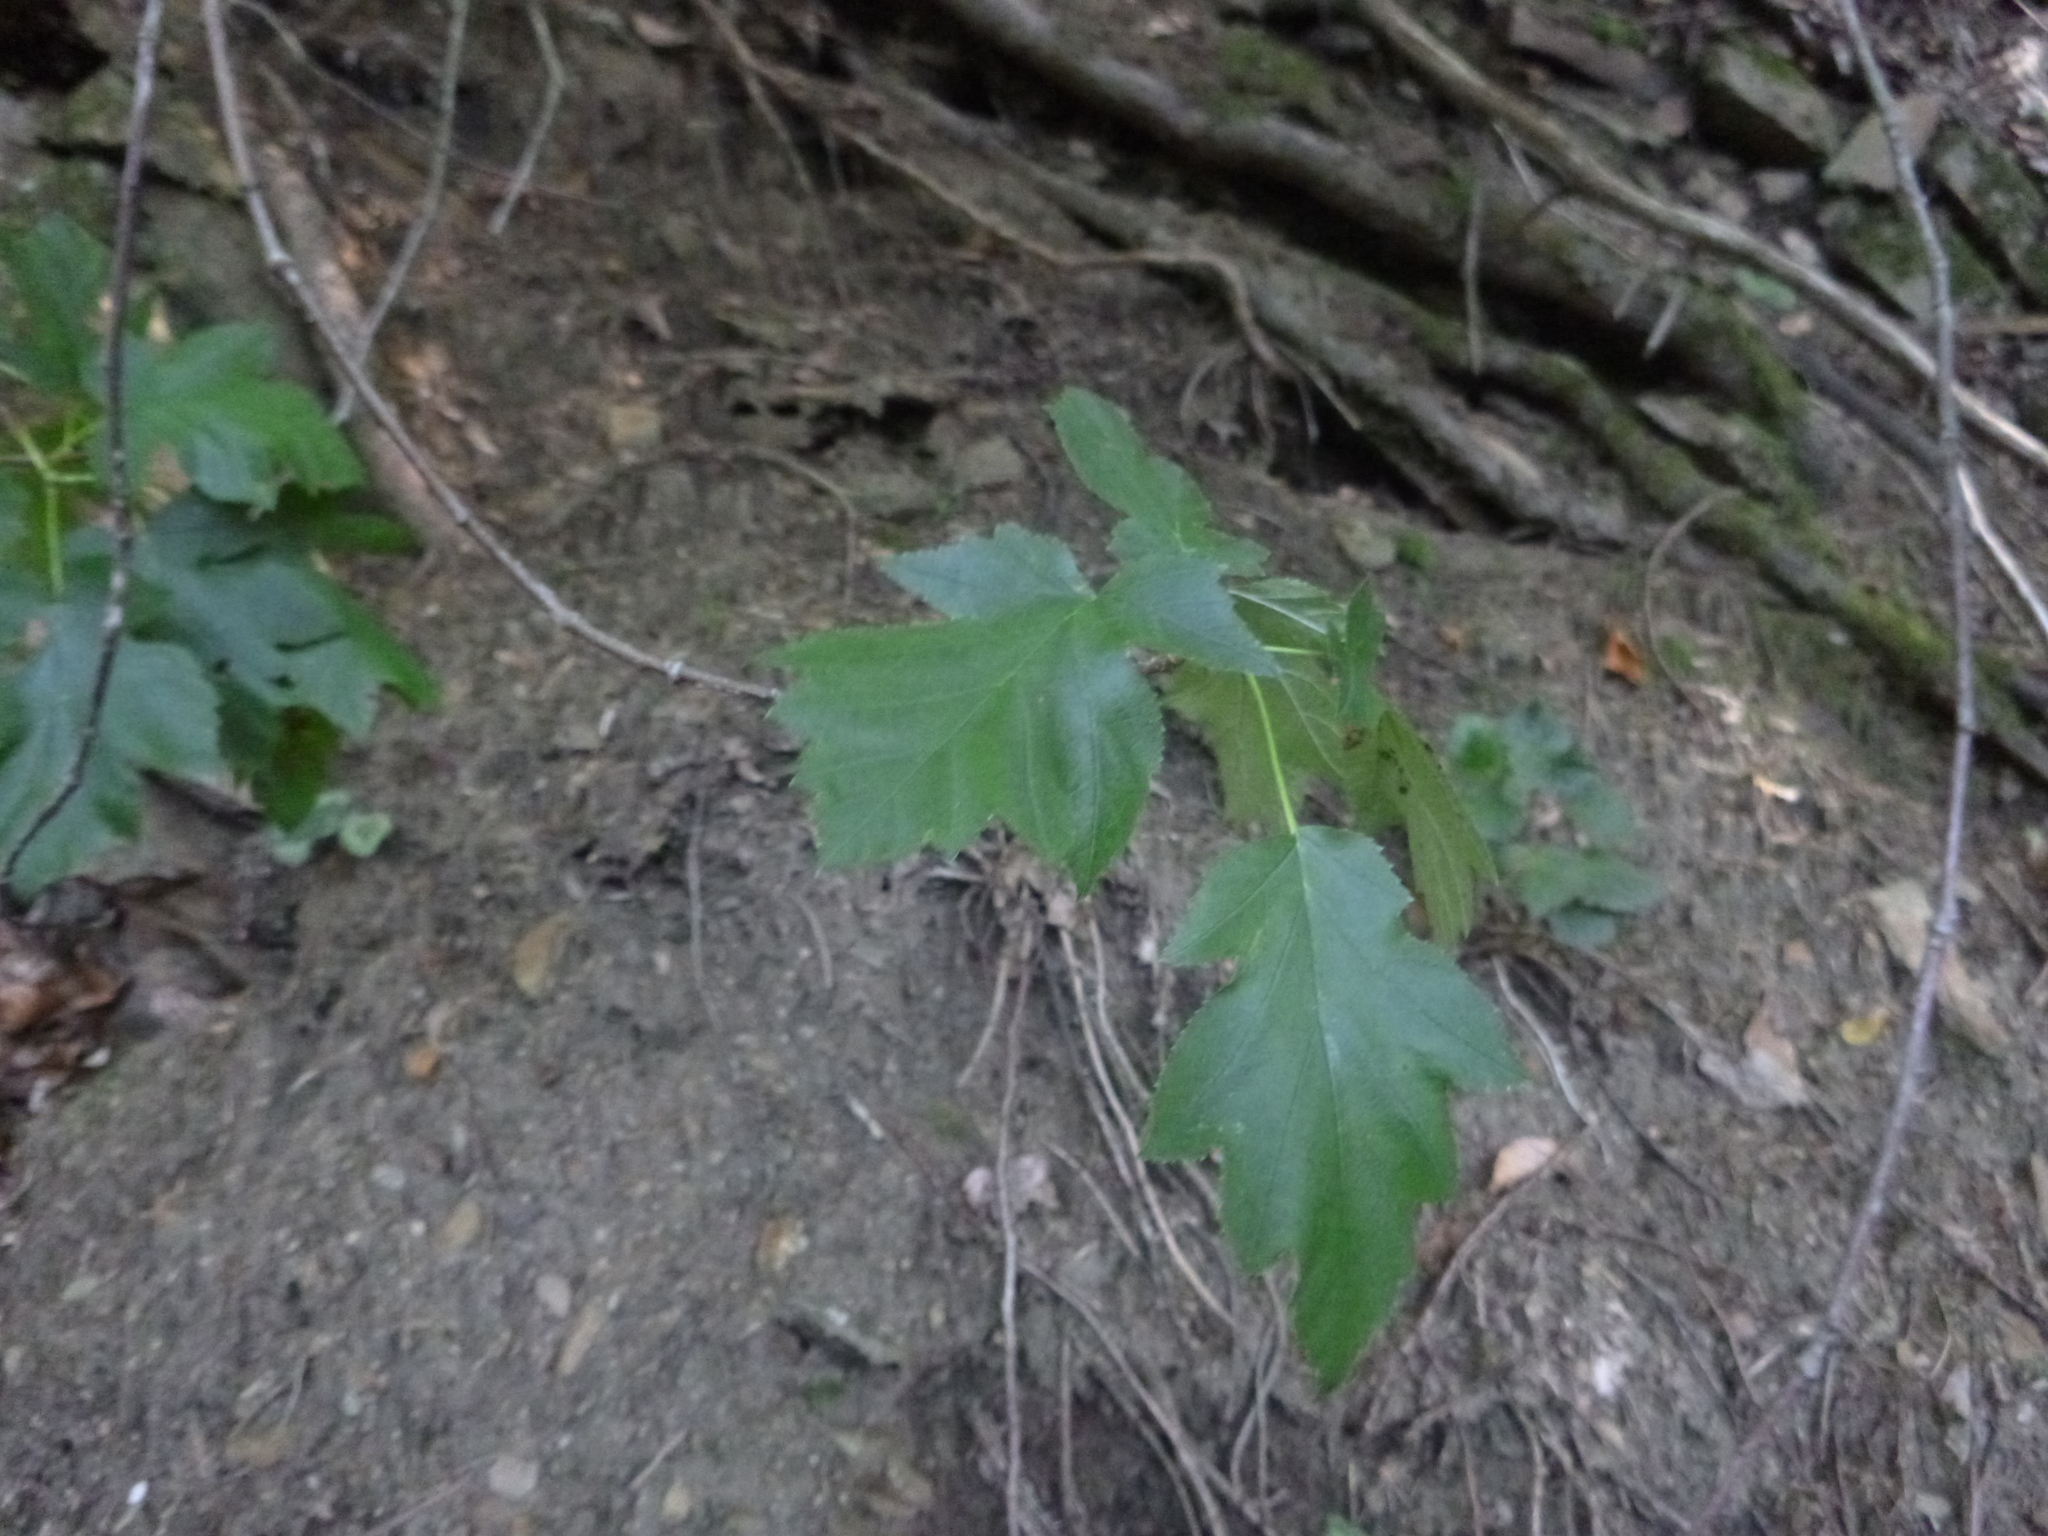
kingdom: Plantae
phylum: Tracheophyta
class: Magnoliopsida
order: Rosales
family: Rosaceae
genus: Torminalis
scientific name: Torminalis glaberrima
